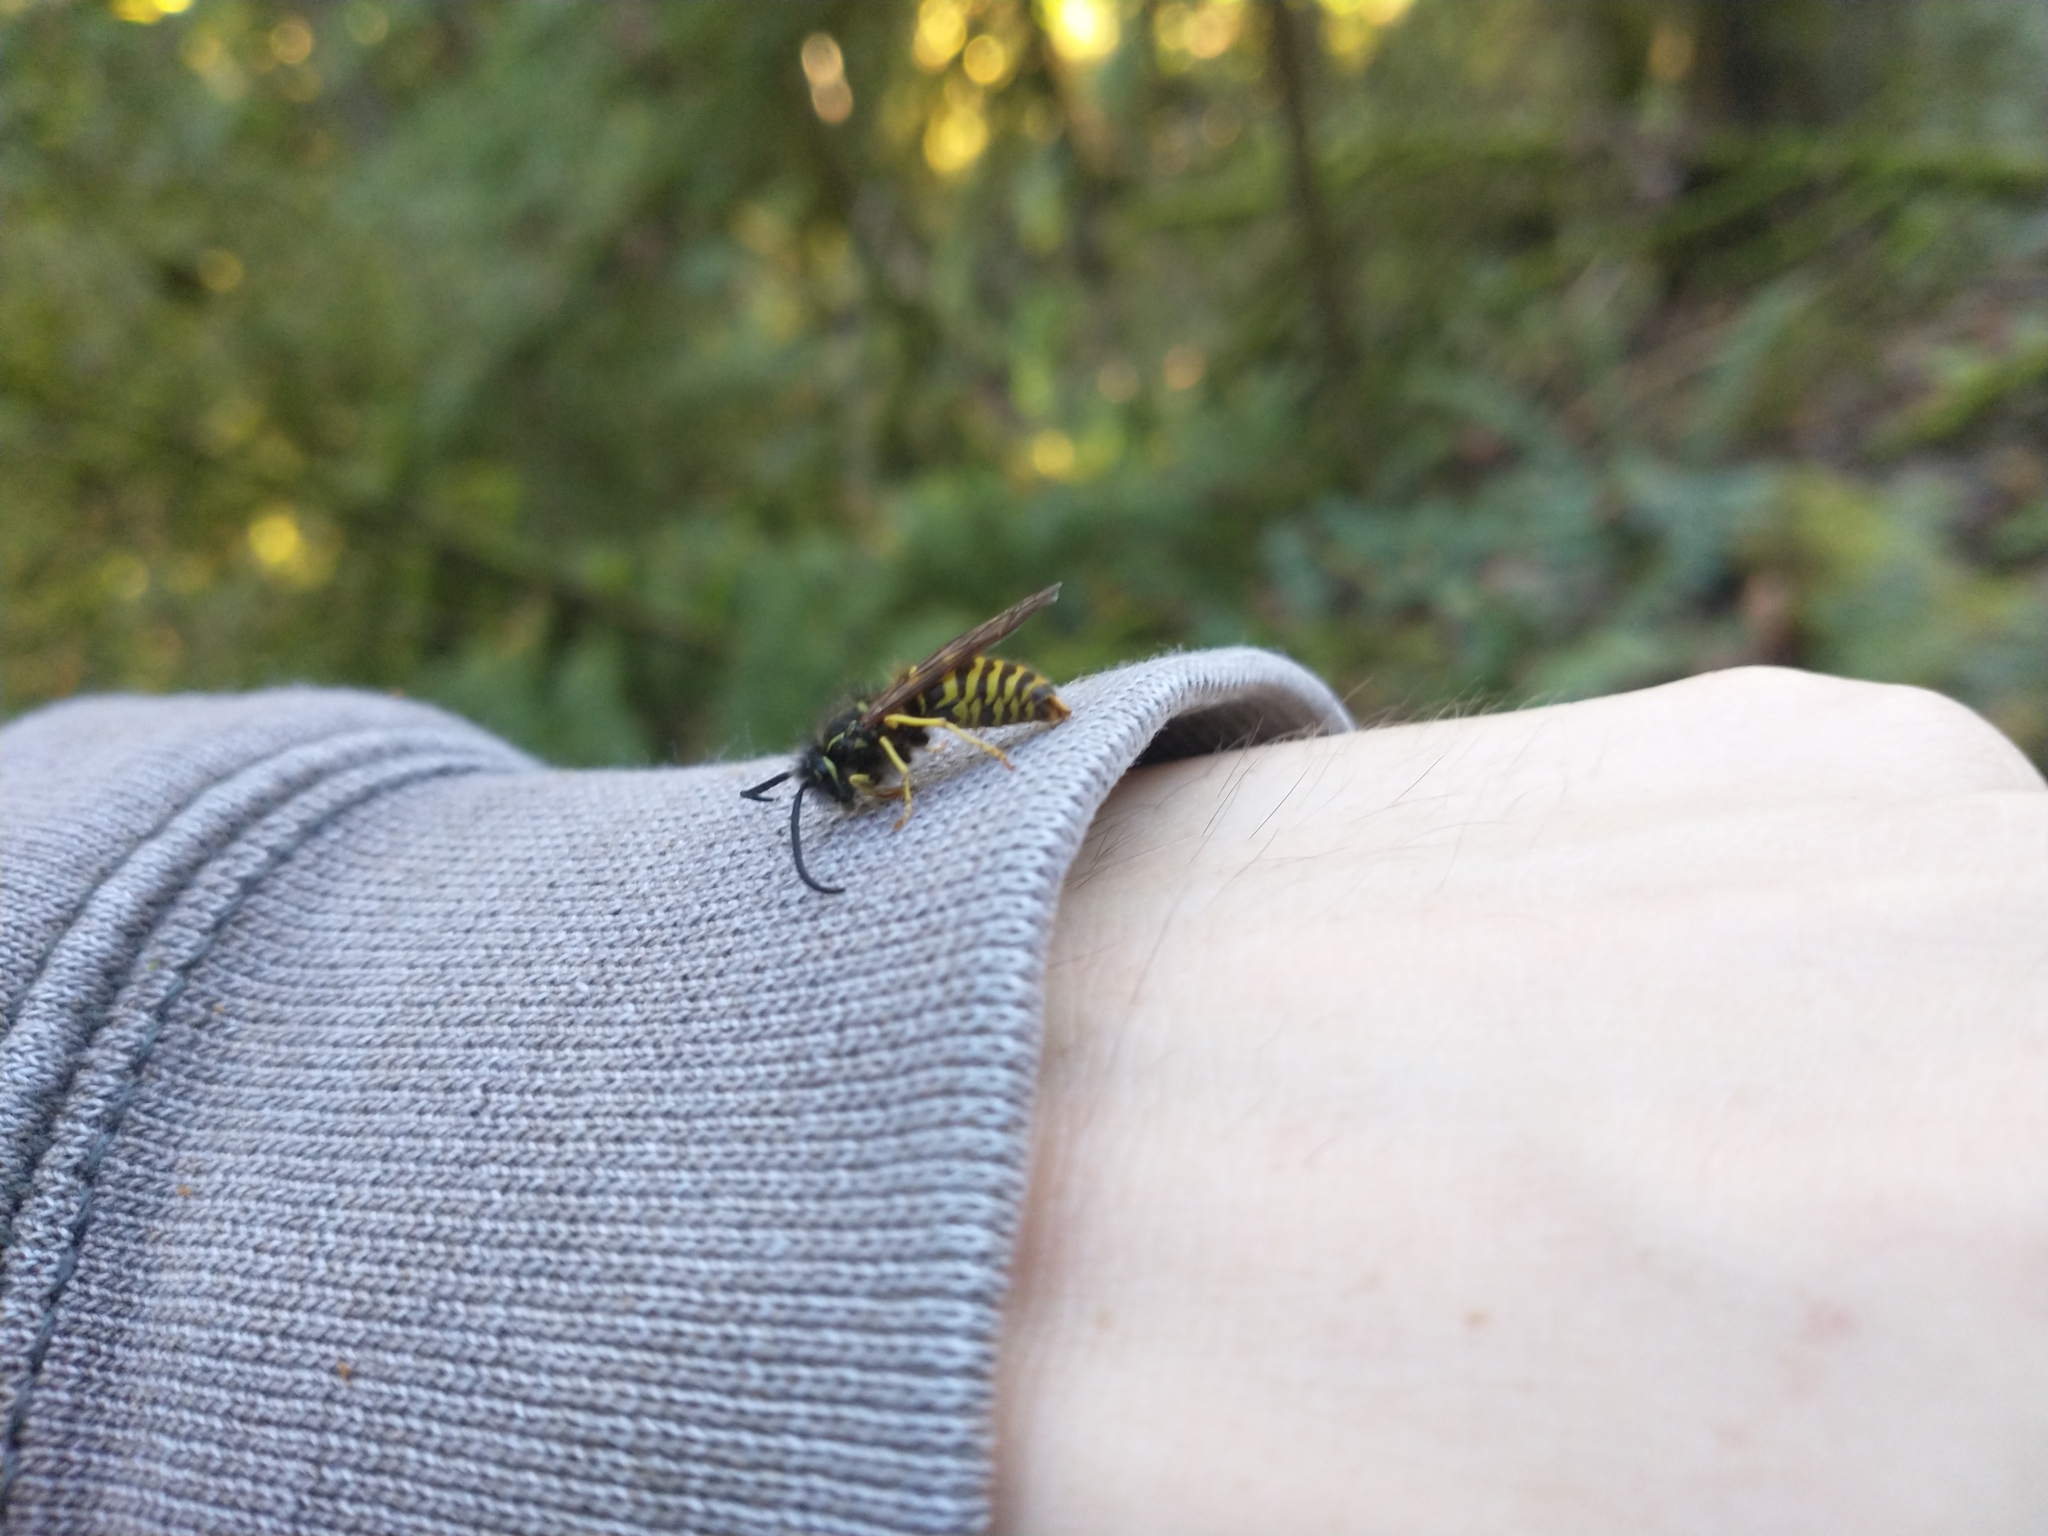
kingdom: Animalia
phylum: Arthropoda
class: Insecta
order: Hymenoptera
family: Vespidae
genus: Vespula
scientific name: Vespula alascensis
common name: Alaska yellowjacket
